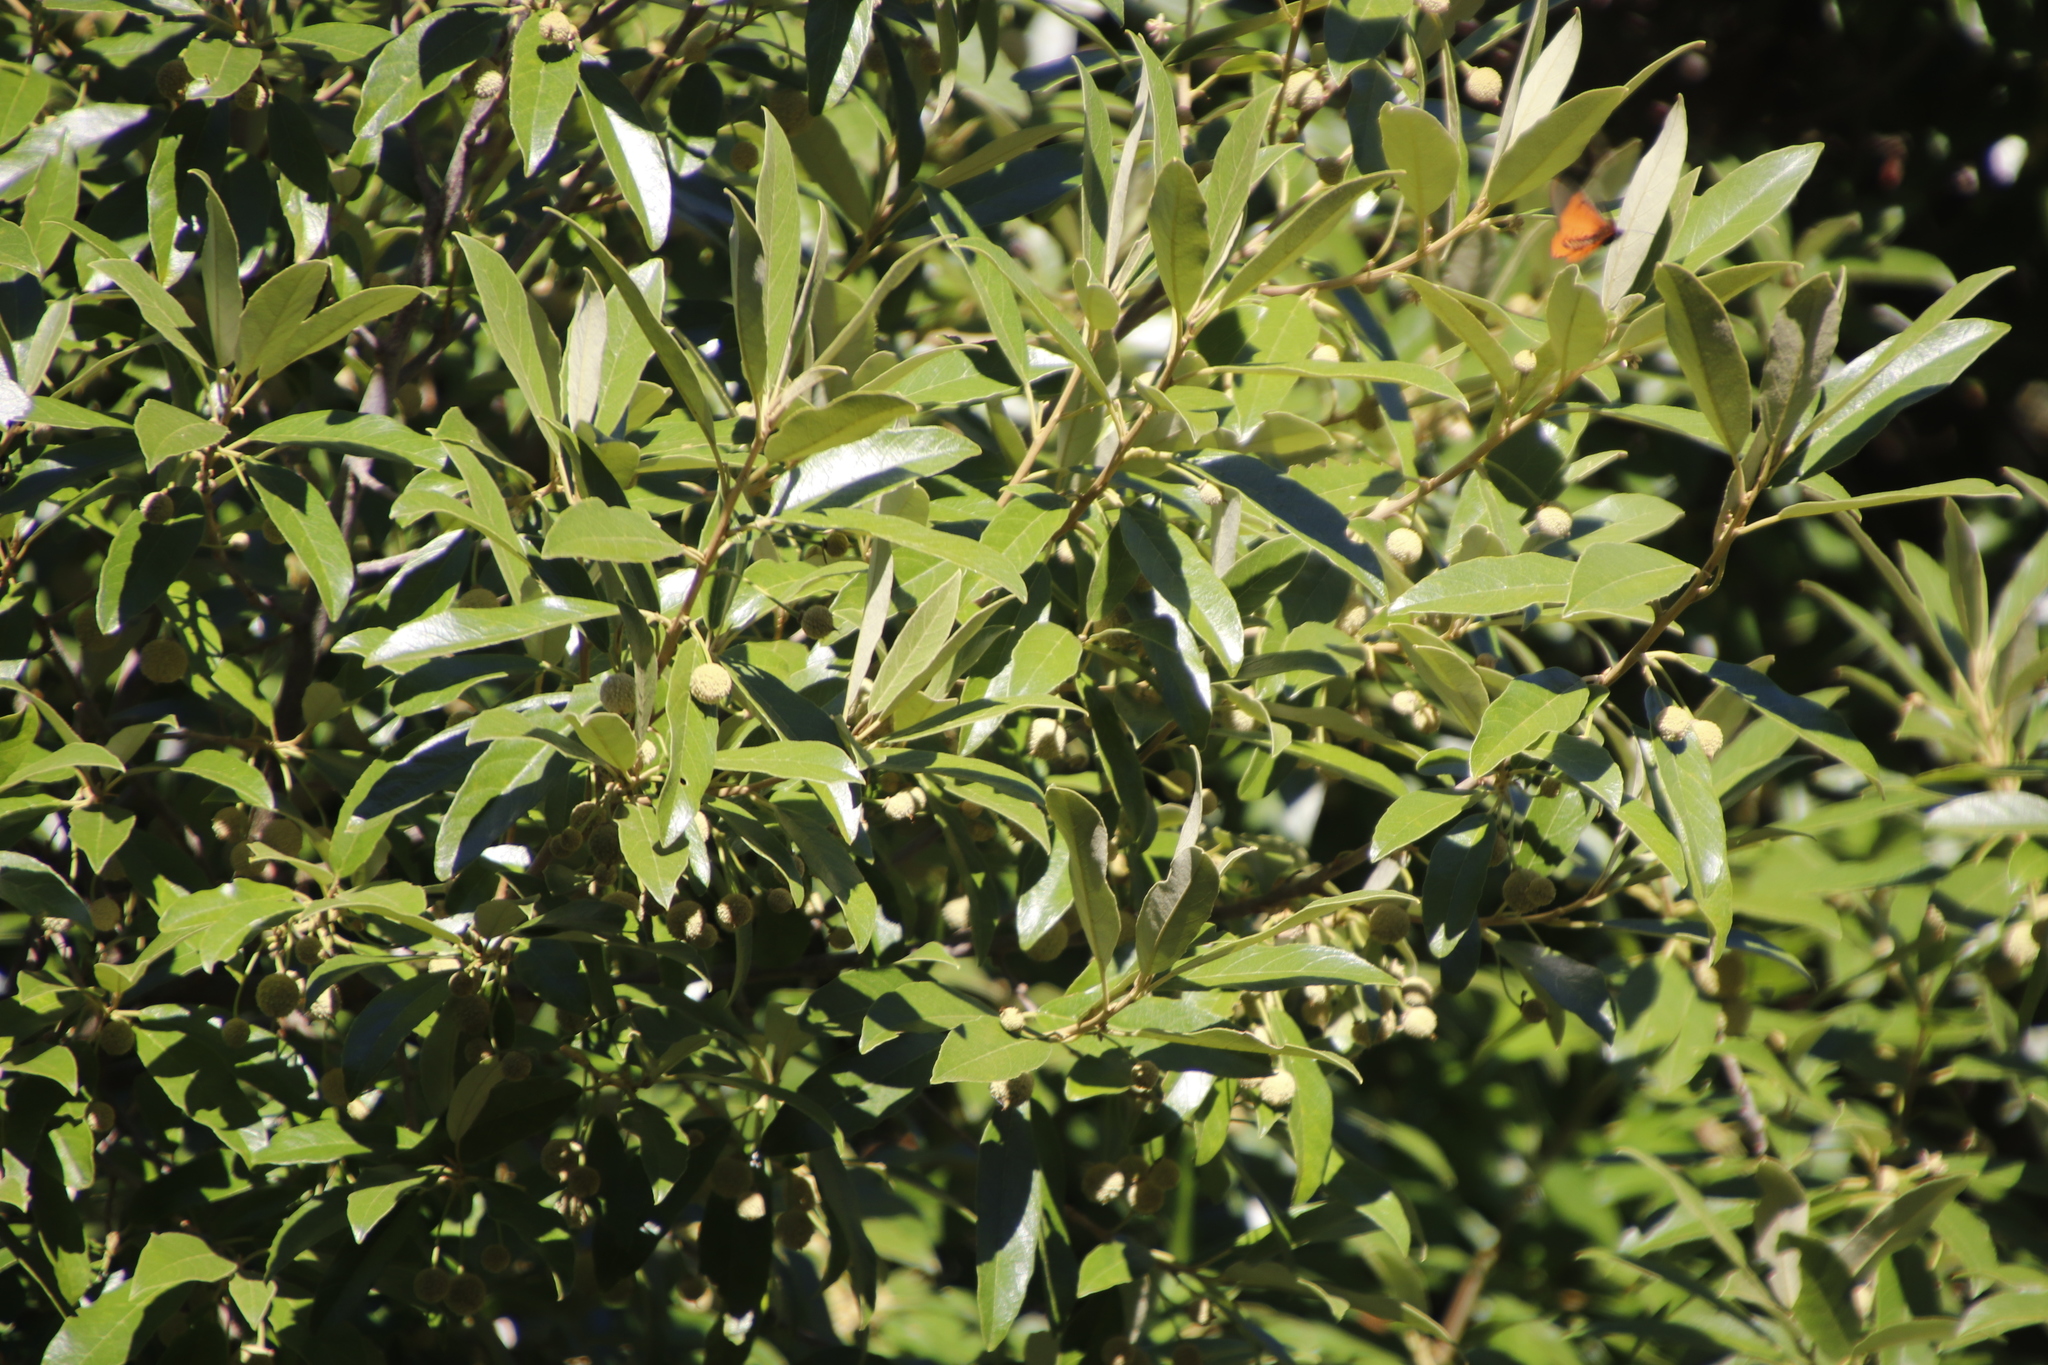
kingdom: Plantae
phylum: Tracheophyta
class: Magnoliopsida
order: Malpighiales
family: Achariaceae
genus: Kiggelaria
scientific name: Kiggelaria africana
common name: Wild peach
